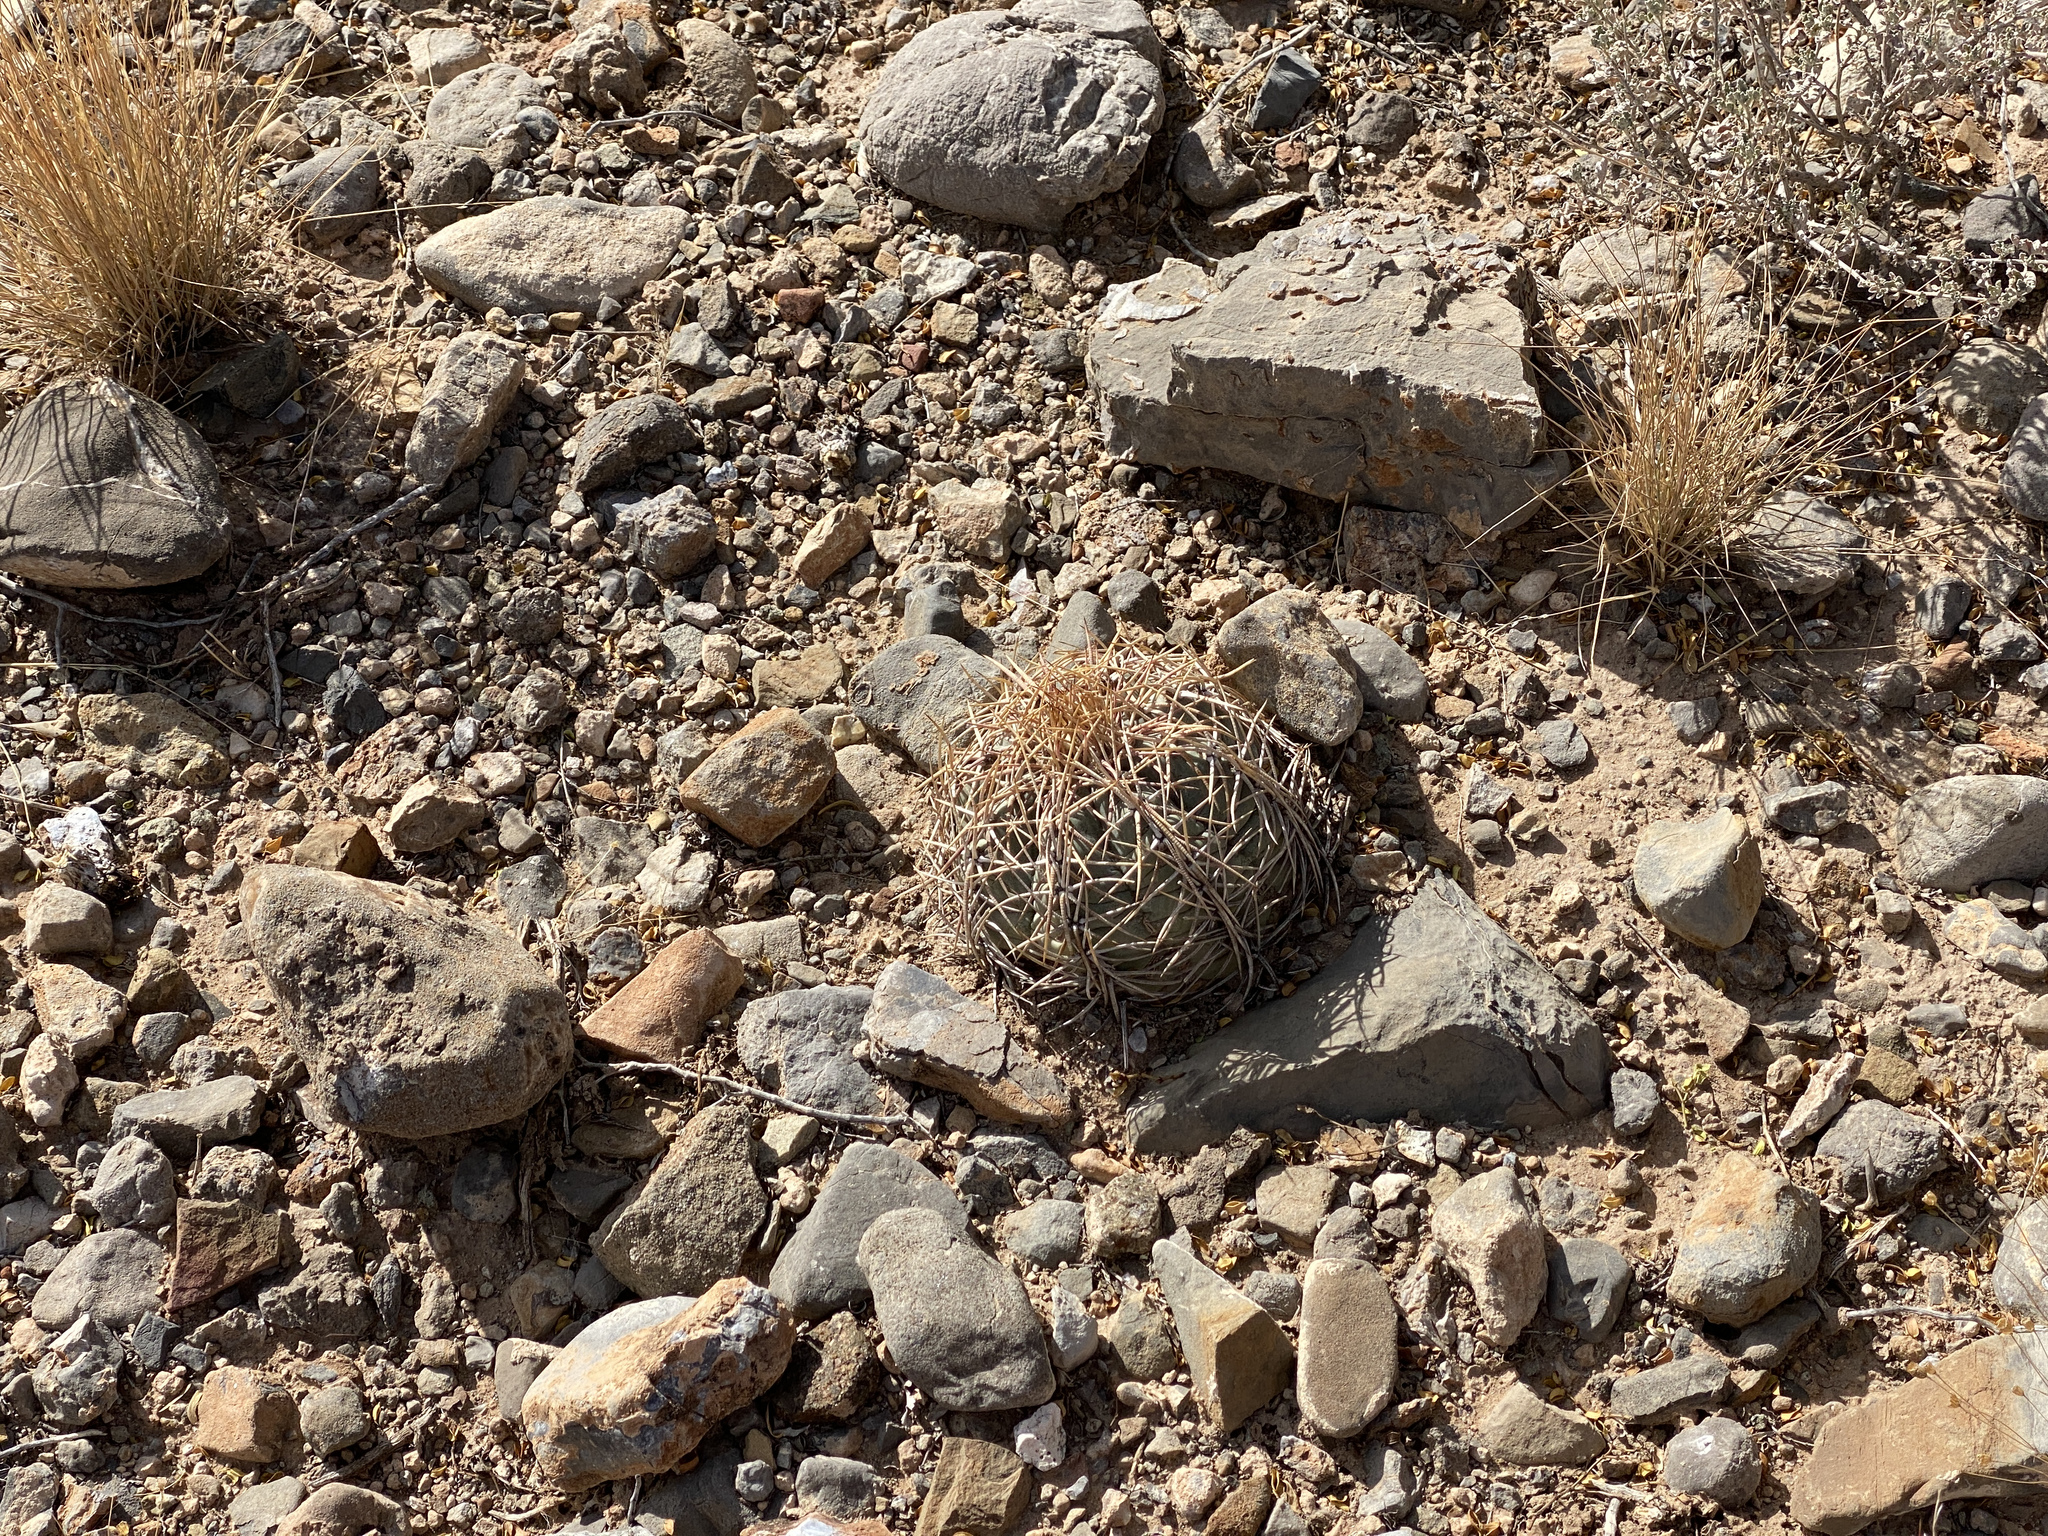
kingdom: Plantae
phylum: Tracheophyta
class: Magnoliopsida
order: Caryophyllales
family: Cactaceae
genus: Echinocactus
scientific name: Echinocactus horizonthalonius
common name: Devilshead
